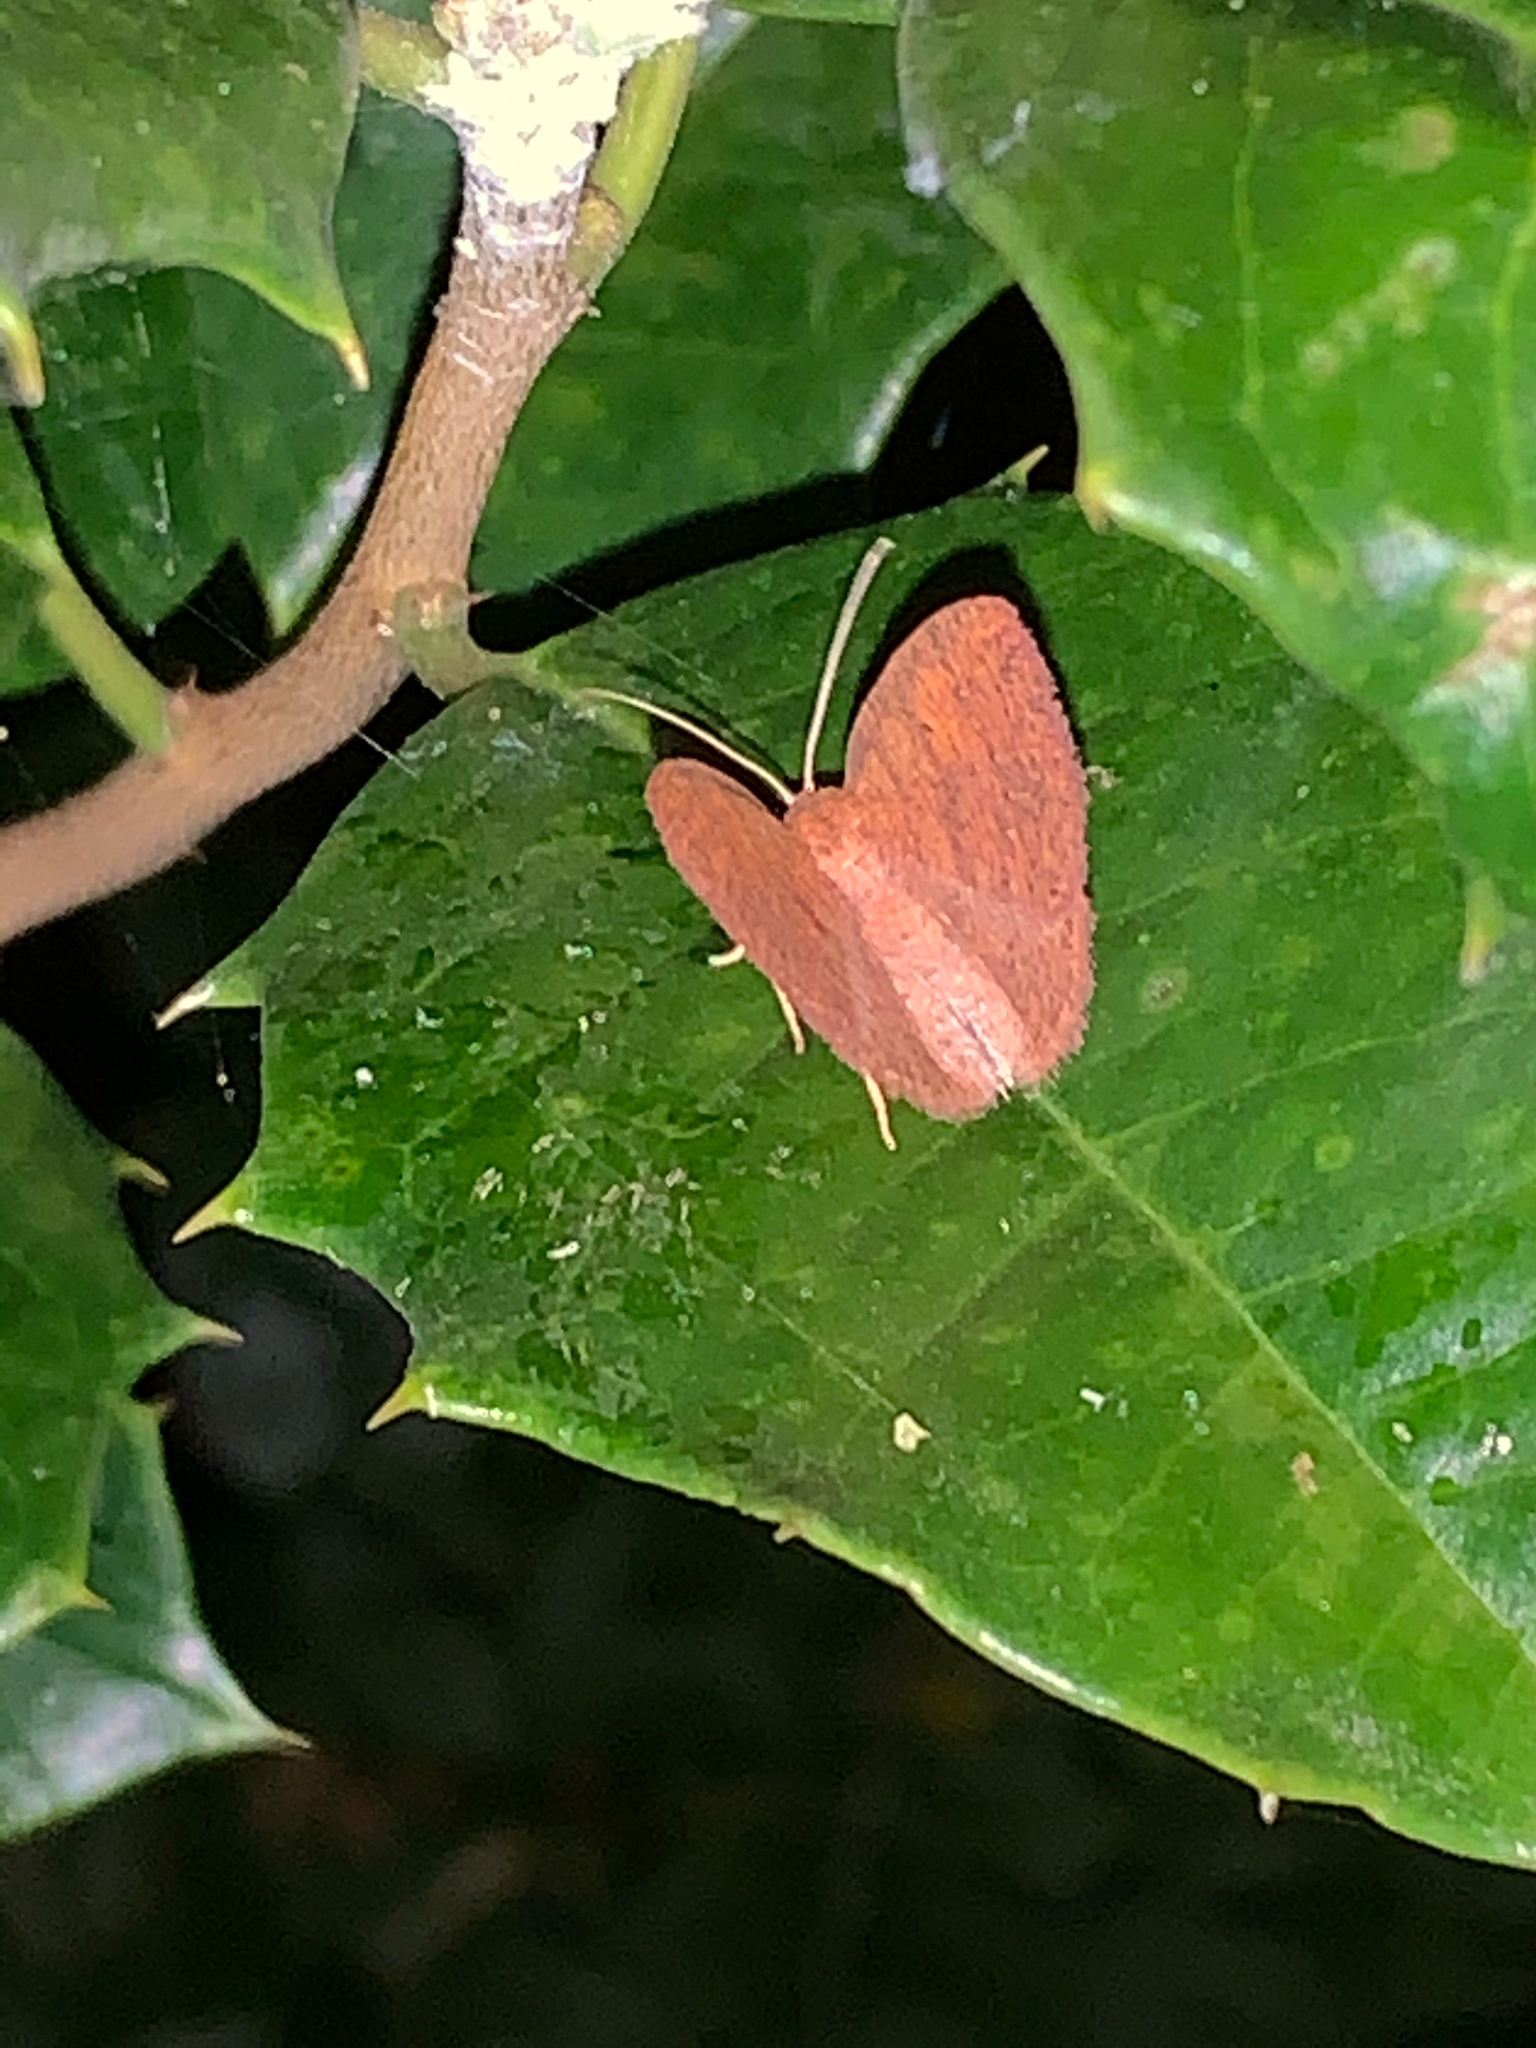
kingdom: Animalia
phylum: Arthropoda
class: Insecta
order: Lepidoptera
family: Geometridae
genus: Ilexia
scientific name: Ilexia intractata
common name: Black-dotted ruddy moth
